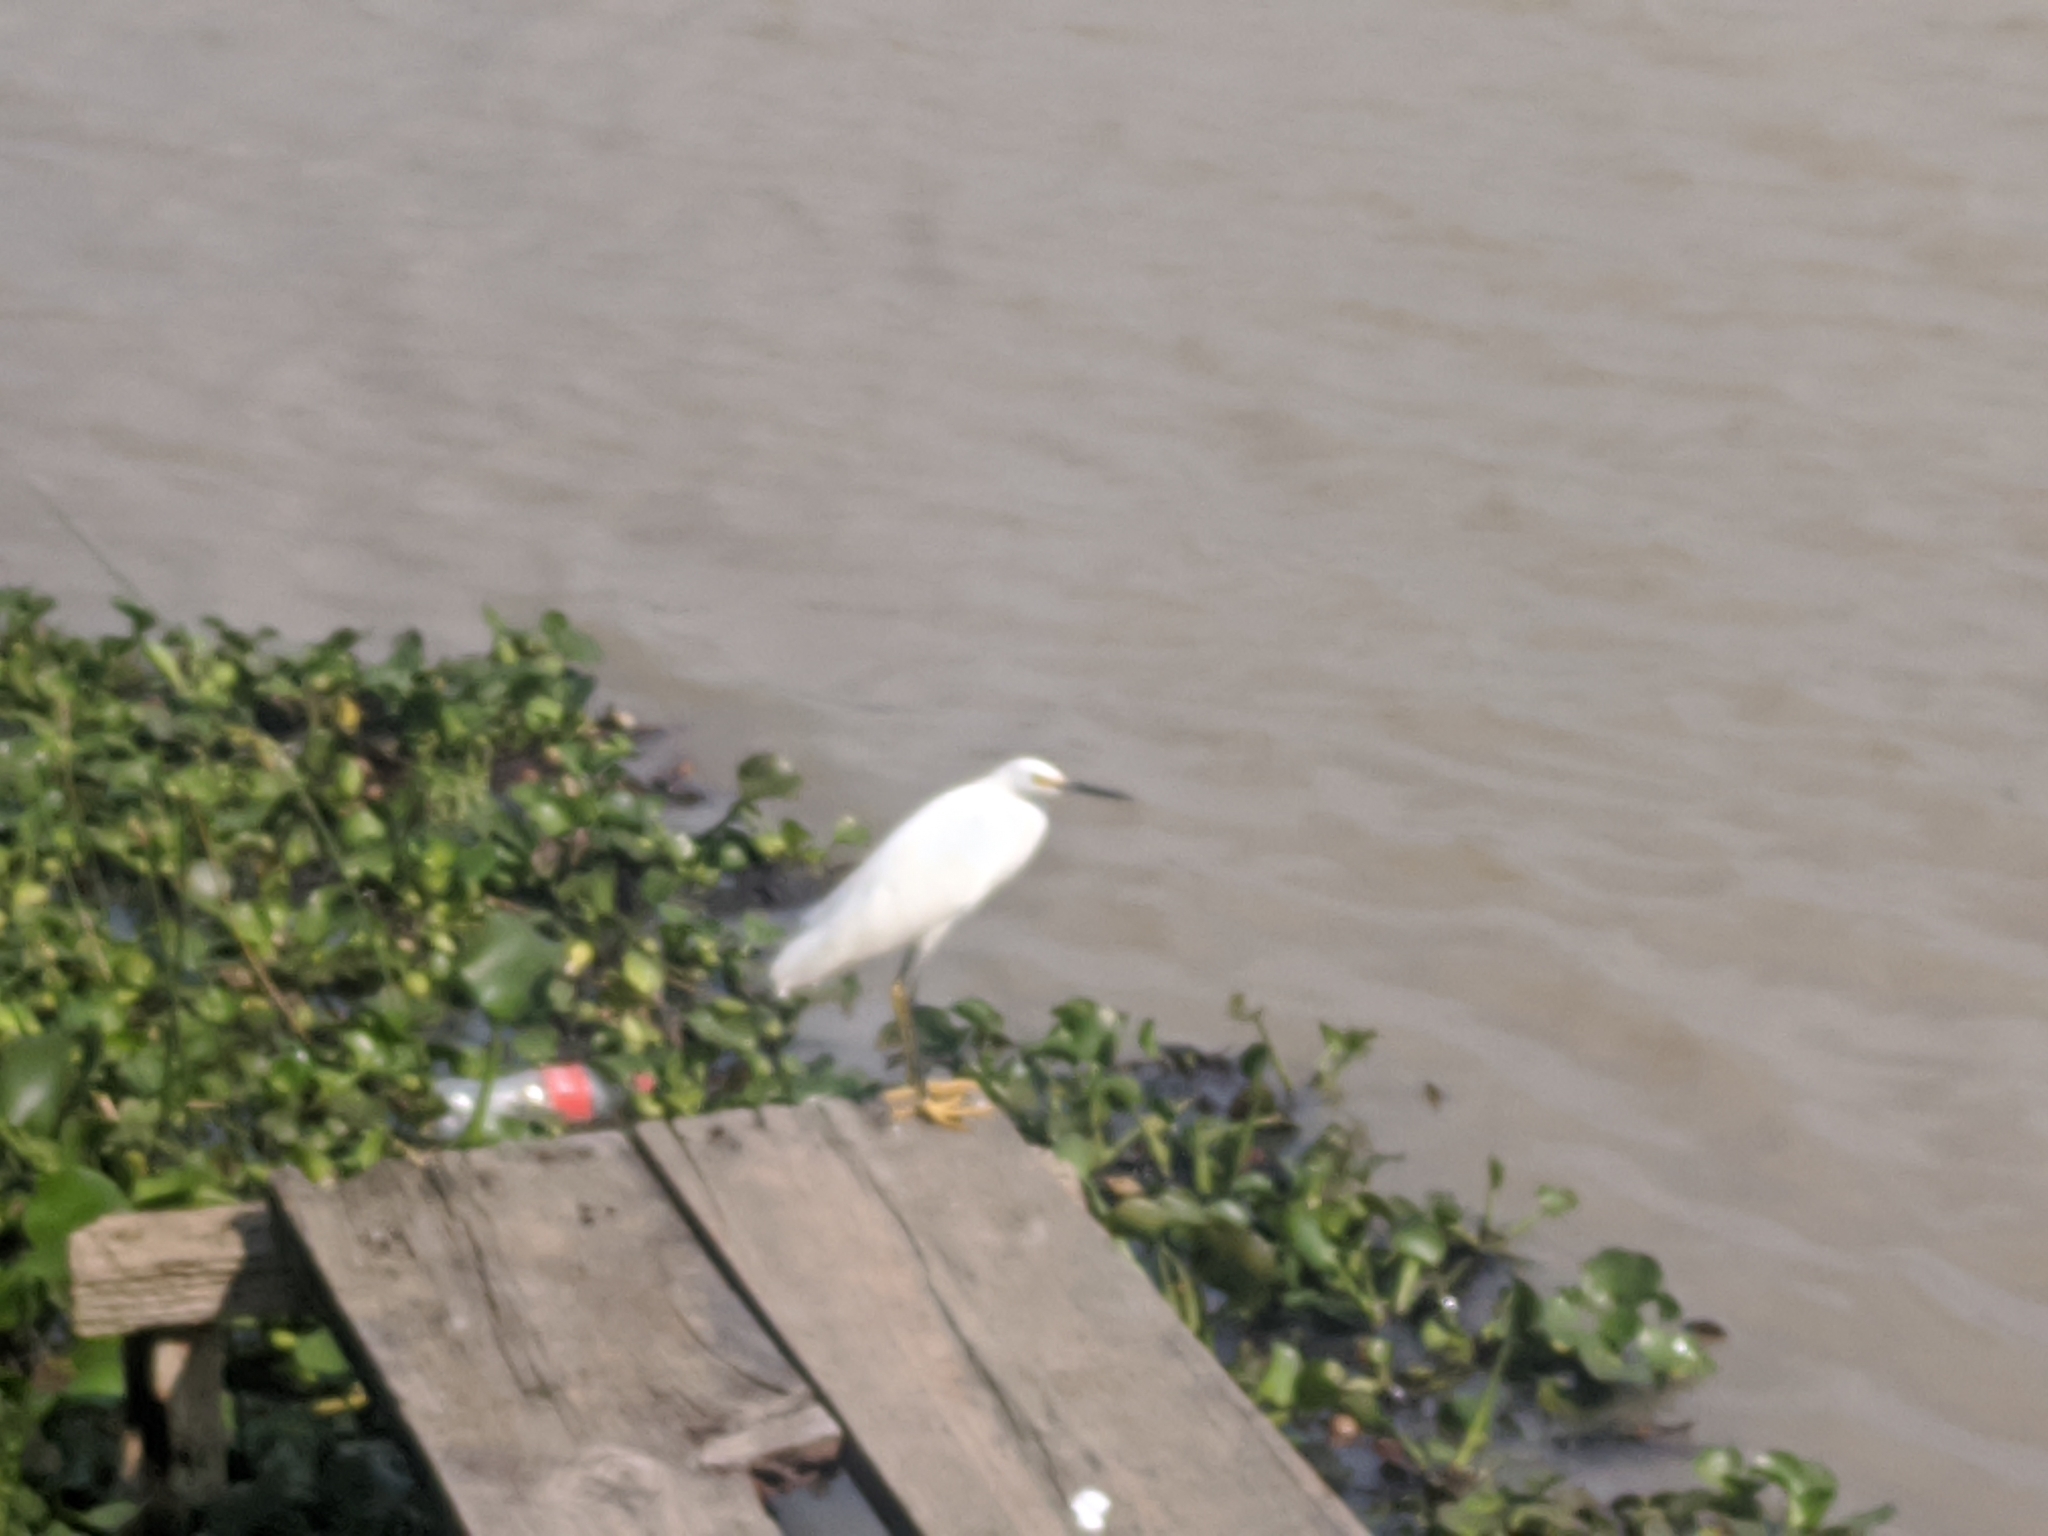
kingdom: Animalia
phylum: Chordata
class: Aves
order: Pelecaniformes
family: Ardeidae
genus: Egretta
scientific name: Egretta thula
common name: Snowy egret
